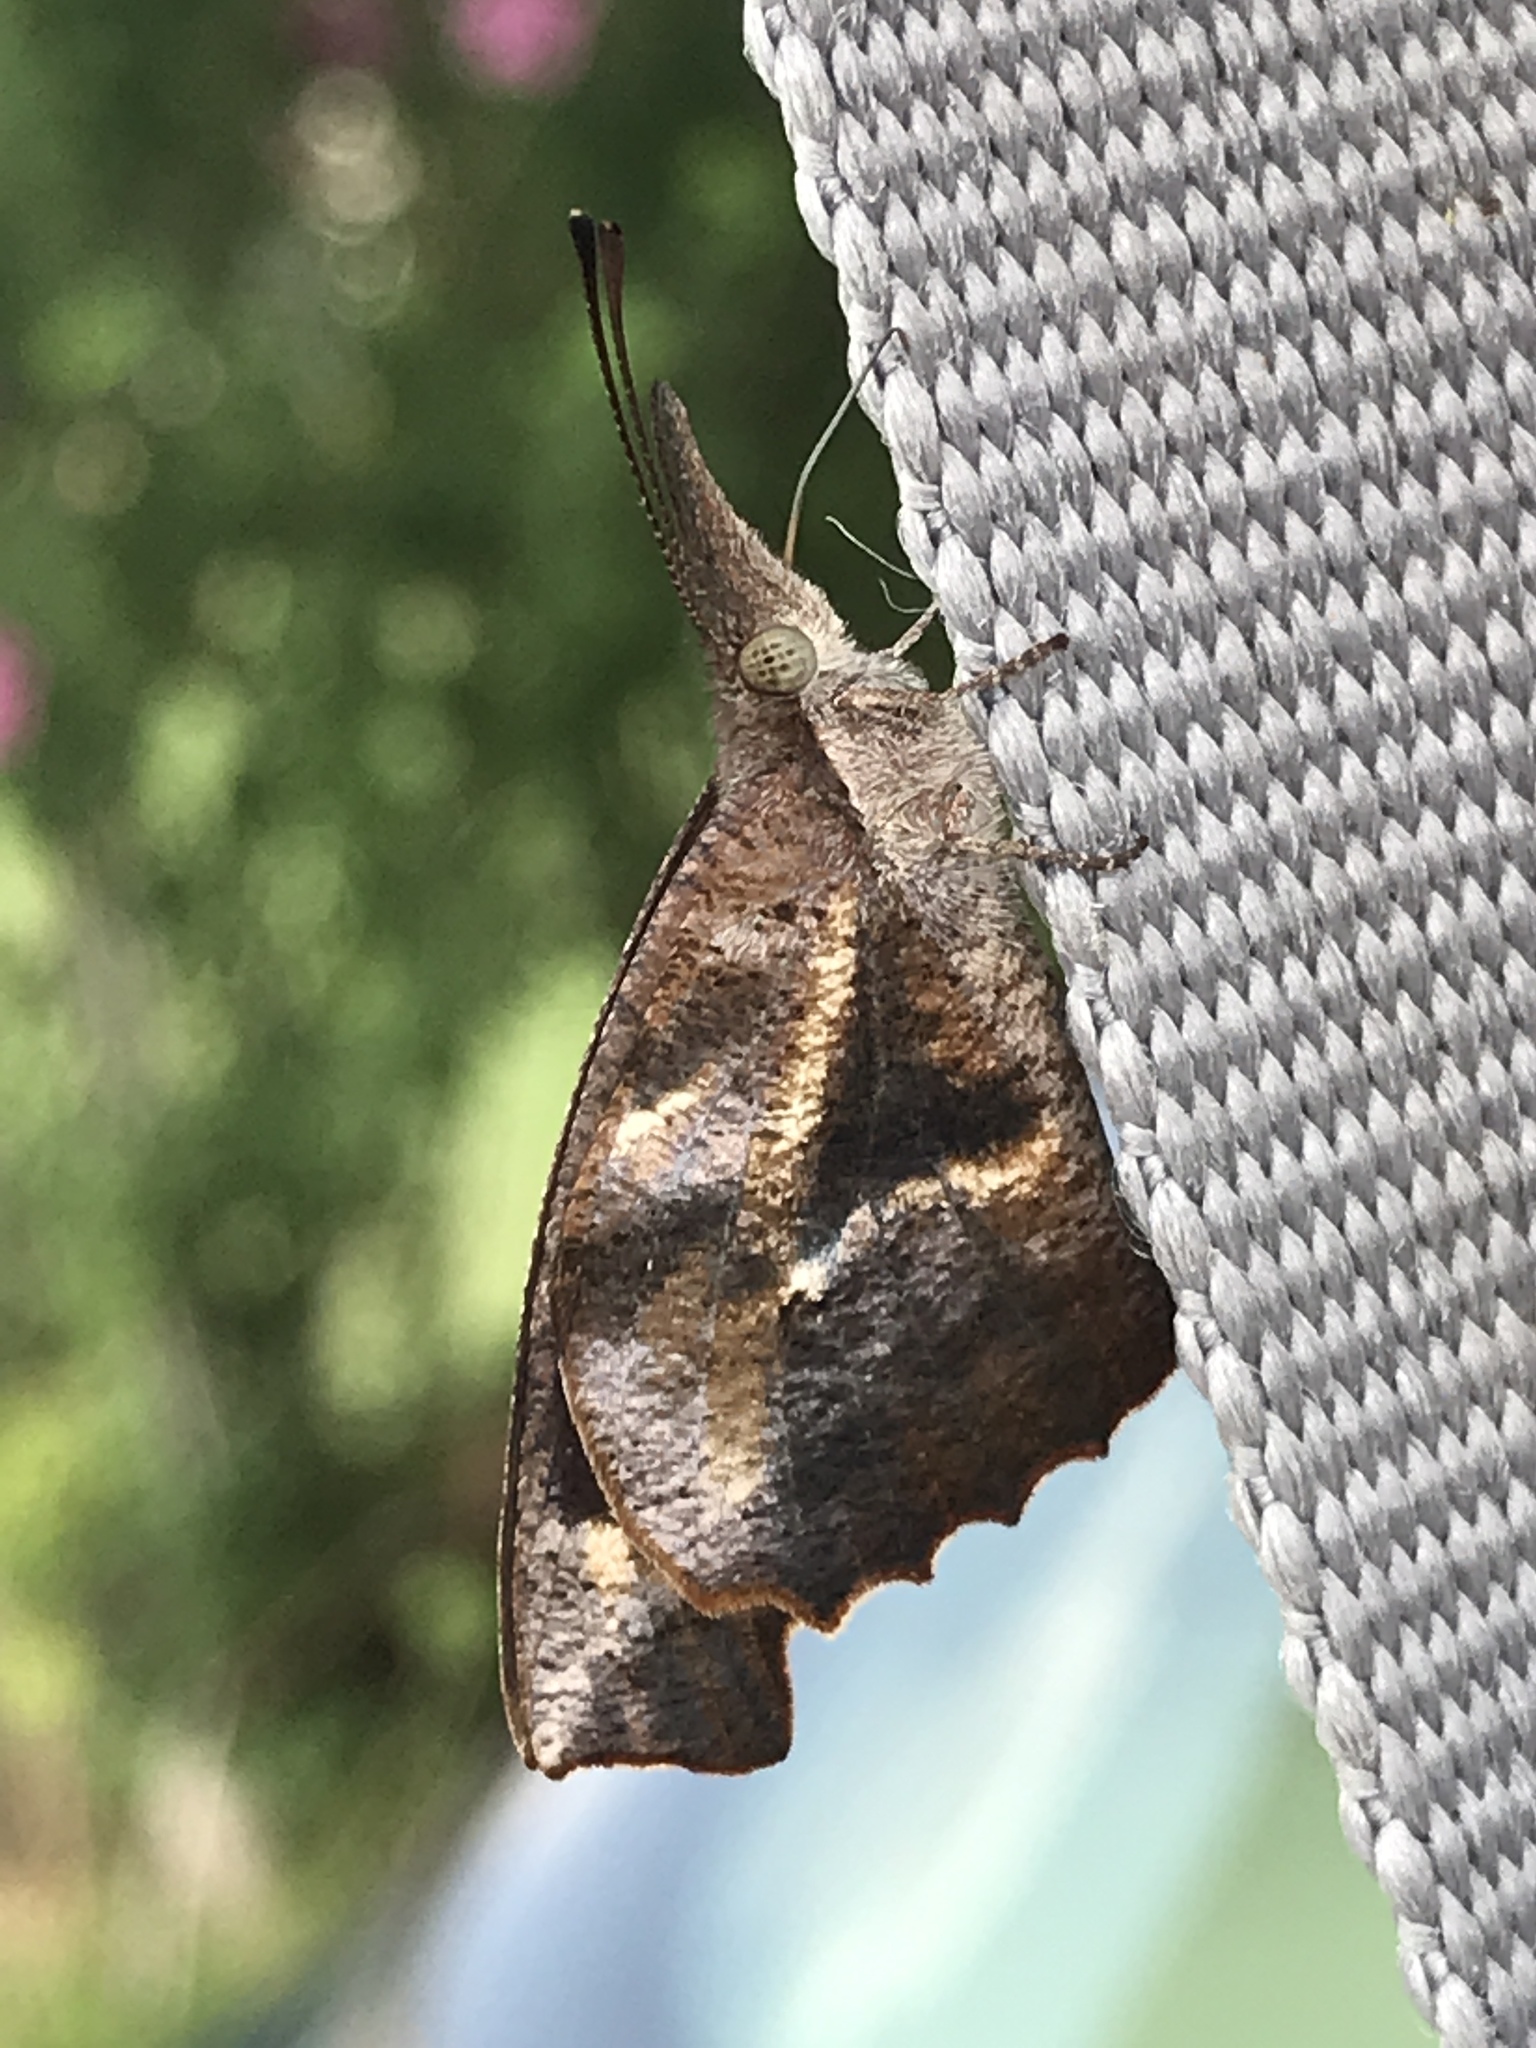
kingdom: Animalia
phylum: Arthropoda
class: Insecta
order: Lepidoptera
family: Nymphalidae
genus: Libytheana
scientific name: Libytheana carinenta
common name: American snout
